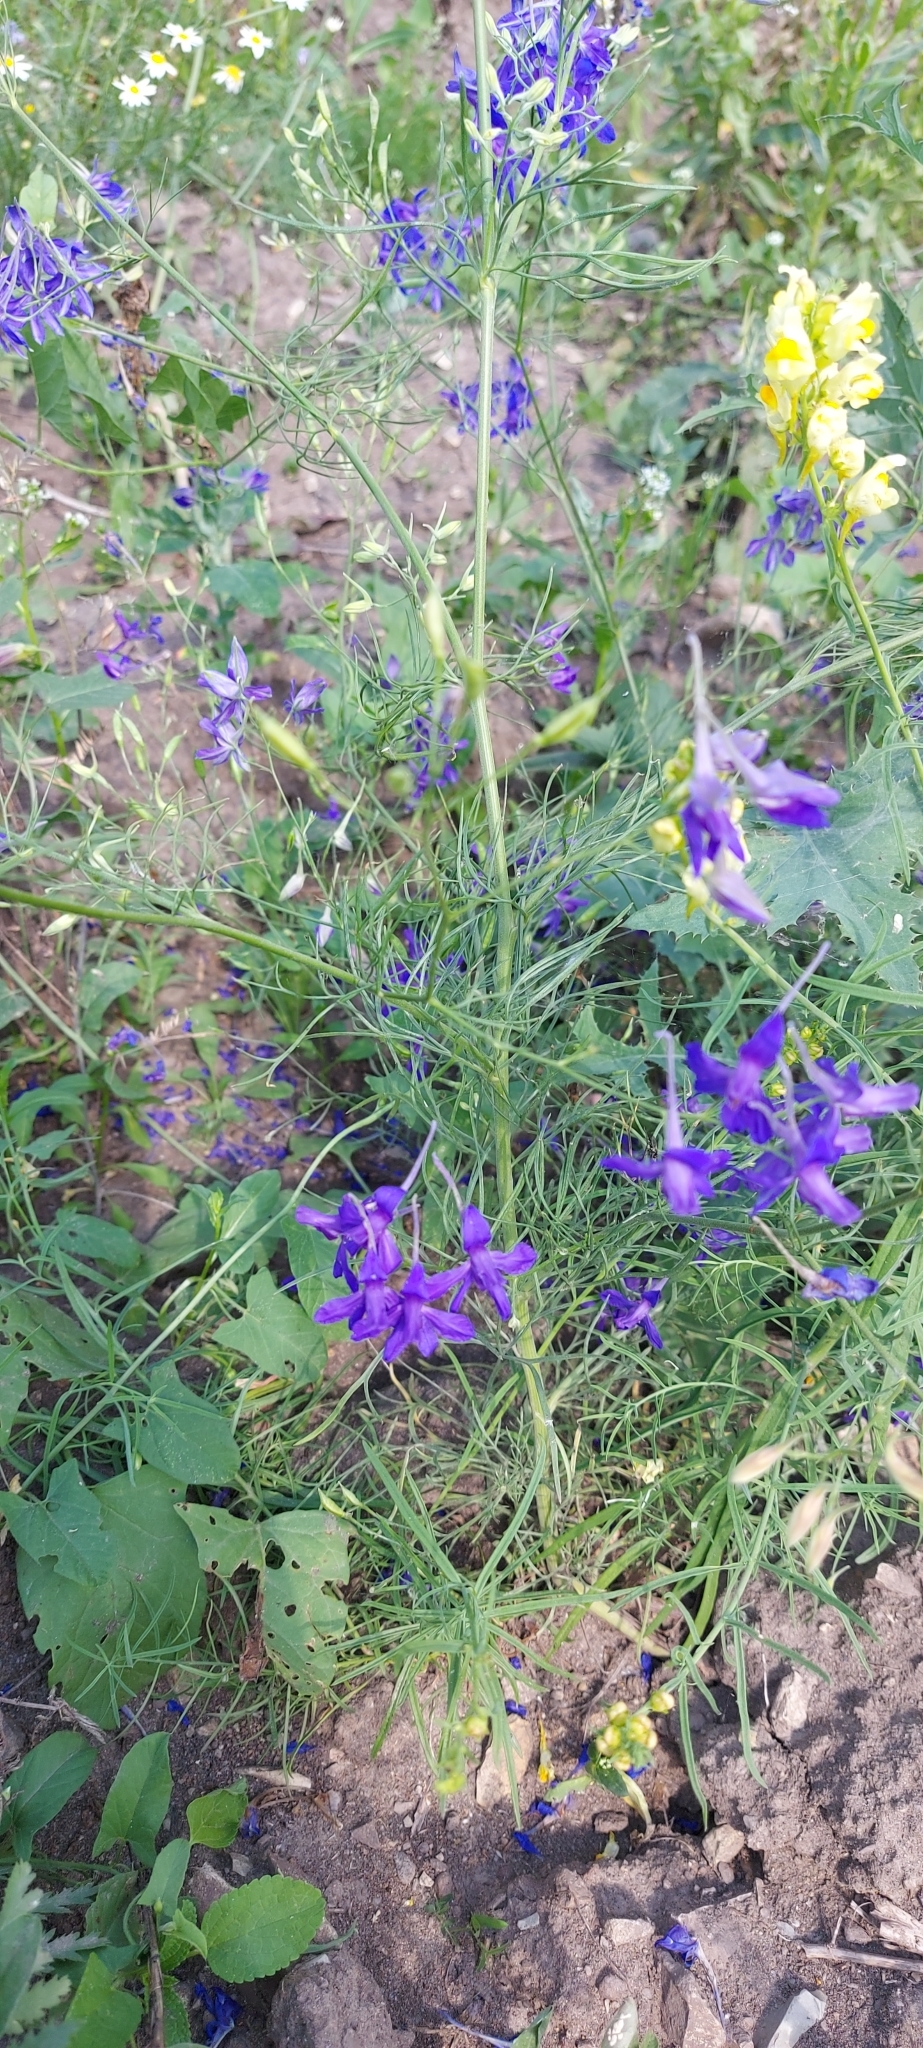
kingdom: Plantae
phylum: Tracheophyta
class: Magnoliopsida
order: Ranunculales
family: Ranunculaceae
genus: Delphinium
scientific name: Delphinium consolida
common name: Branching larkspur
